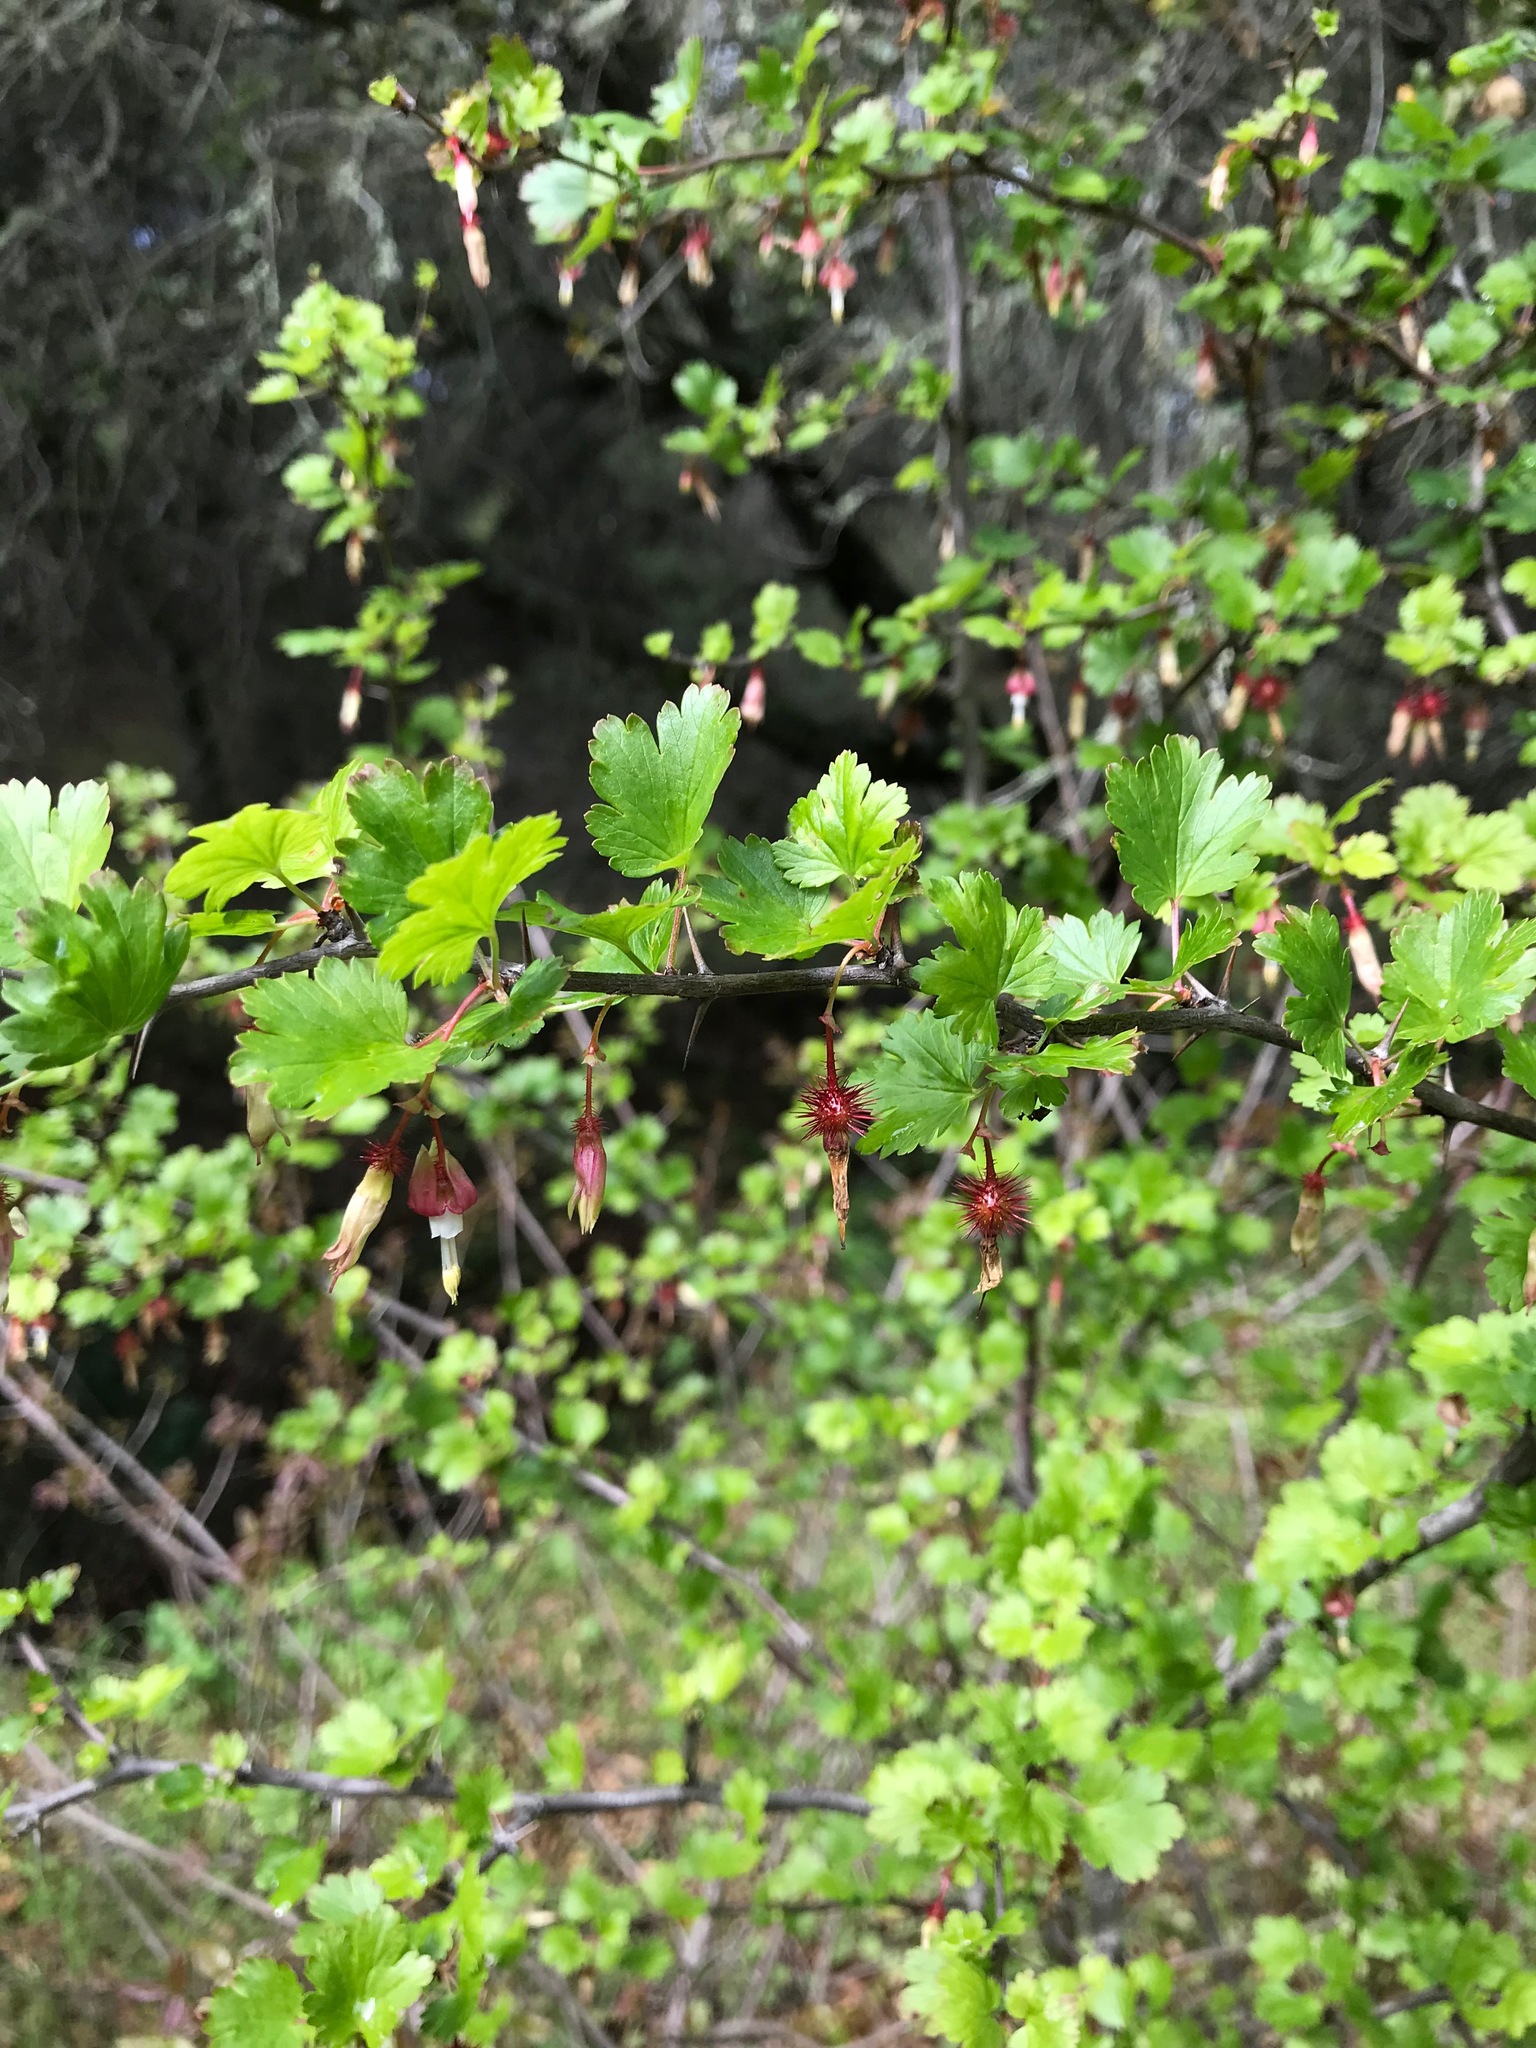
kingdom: Plantae
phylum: Tracheophyta
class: Magnoliopsida
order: Saxifragales
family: Grossulariaceae
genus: Ribes
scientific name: Ribes californicum
